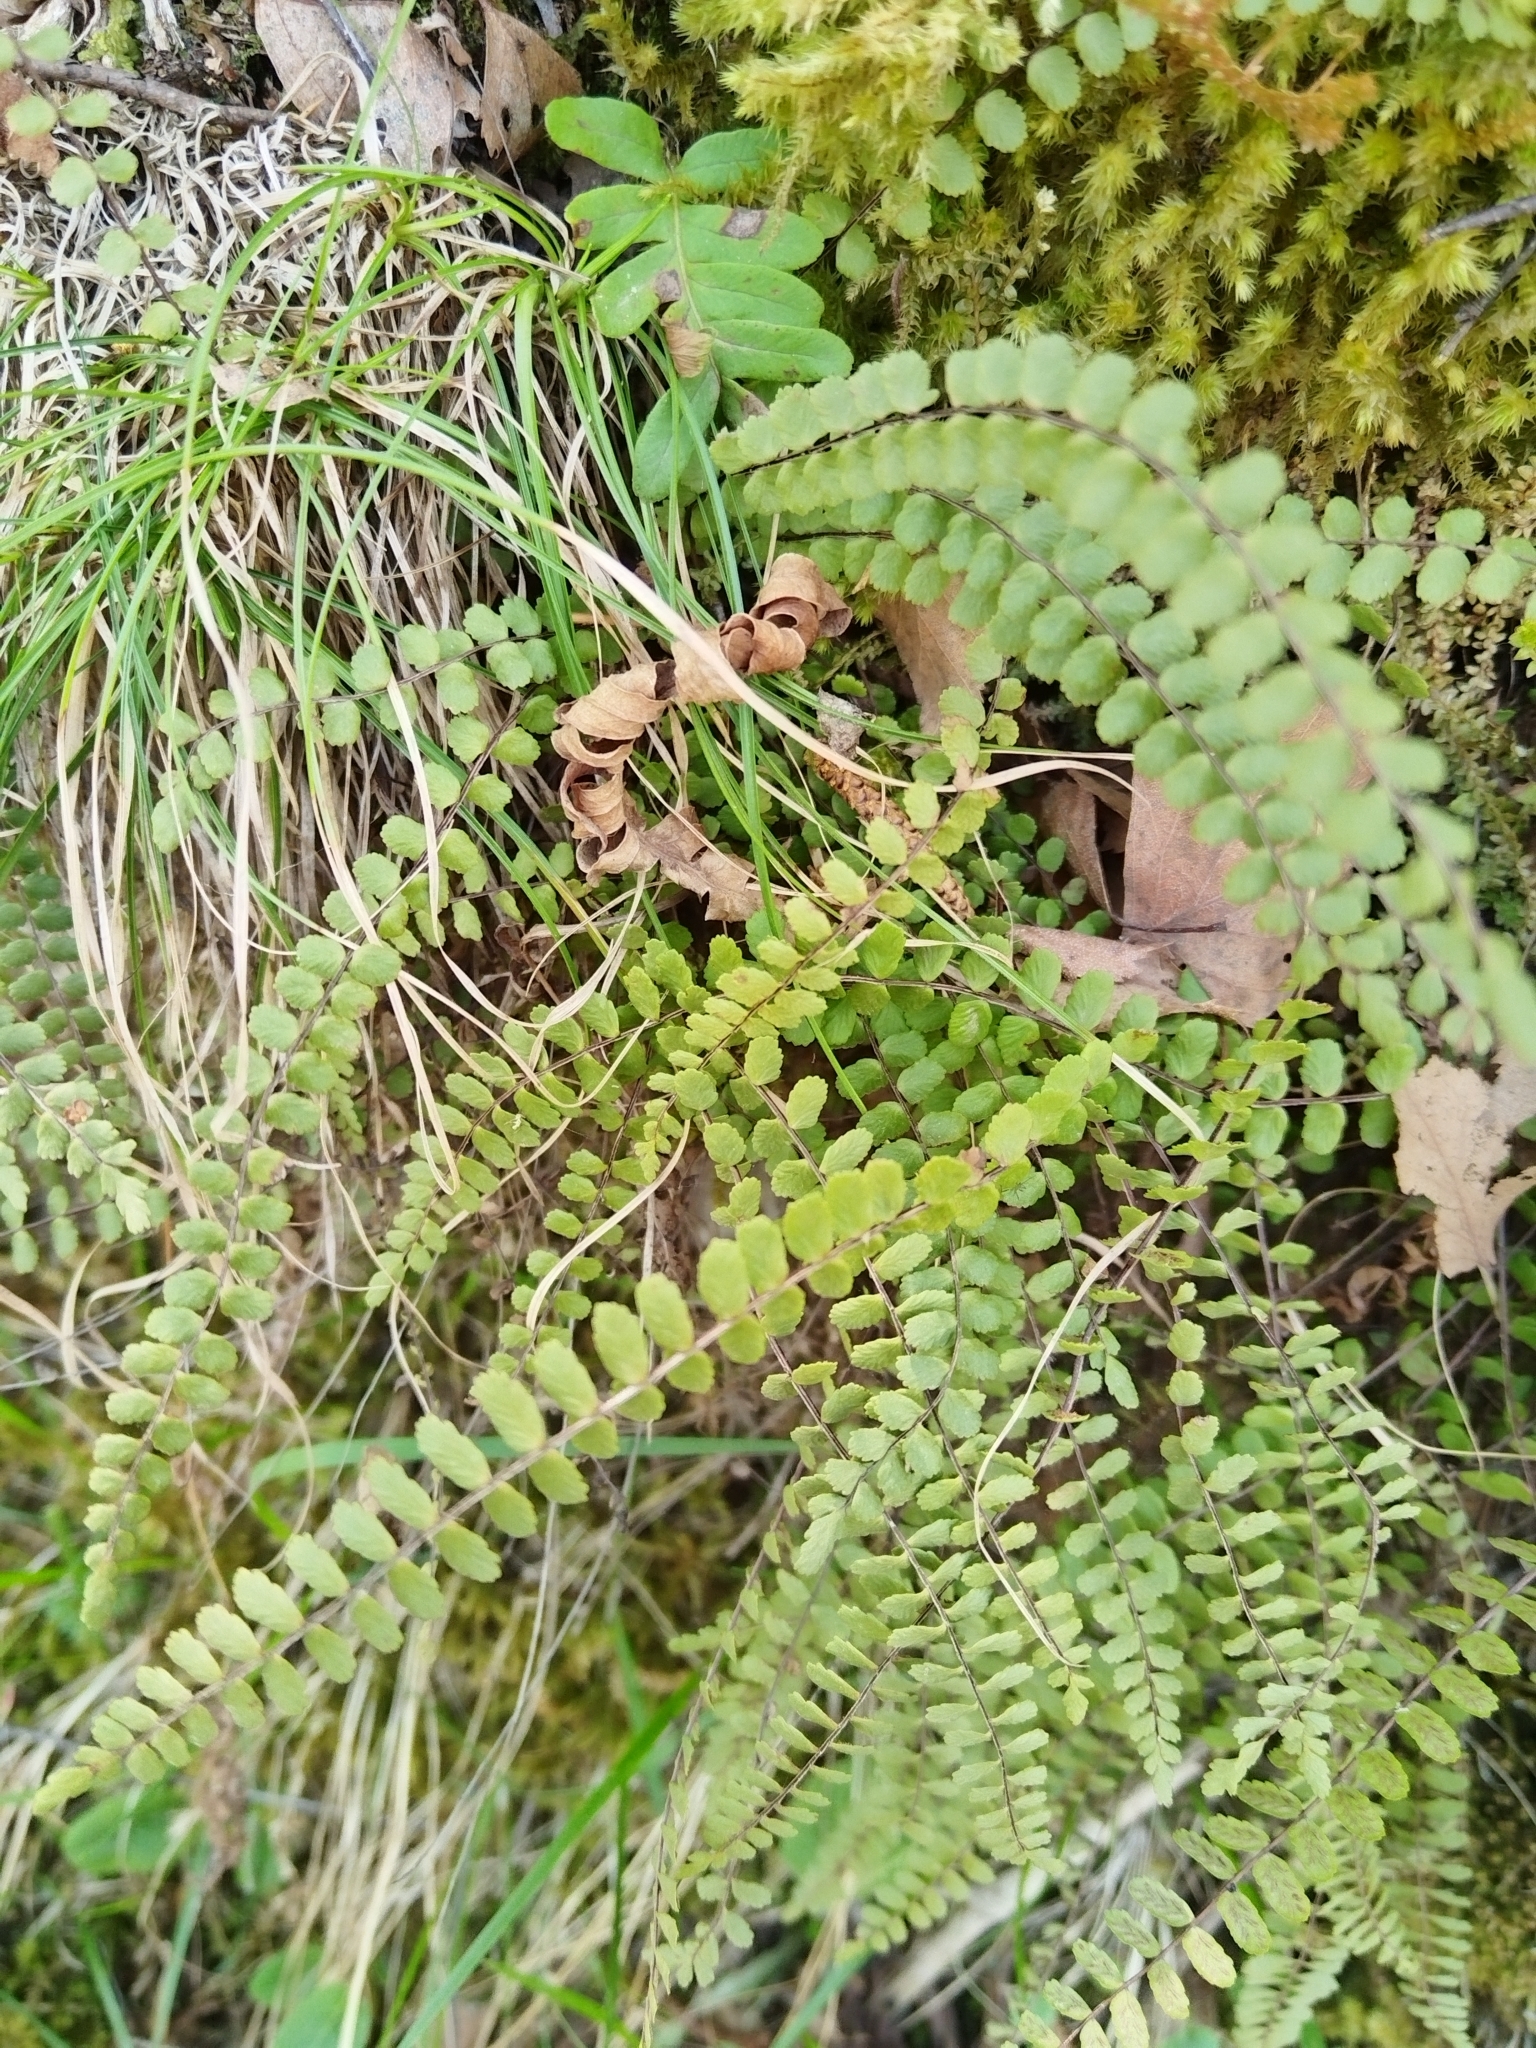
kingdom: Plantae
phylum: Tracheophyta
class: Polypodiopsida
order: Polypodiales
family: Aspleniaceae
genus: Asplenium
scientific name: Asplenium trichomanes
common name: Maidenhair spleenwort
